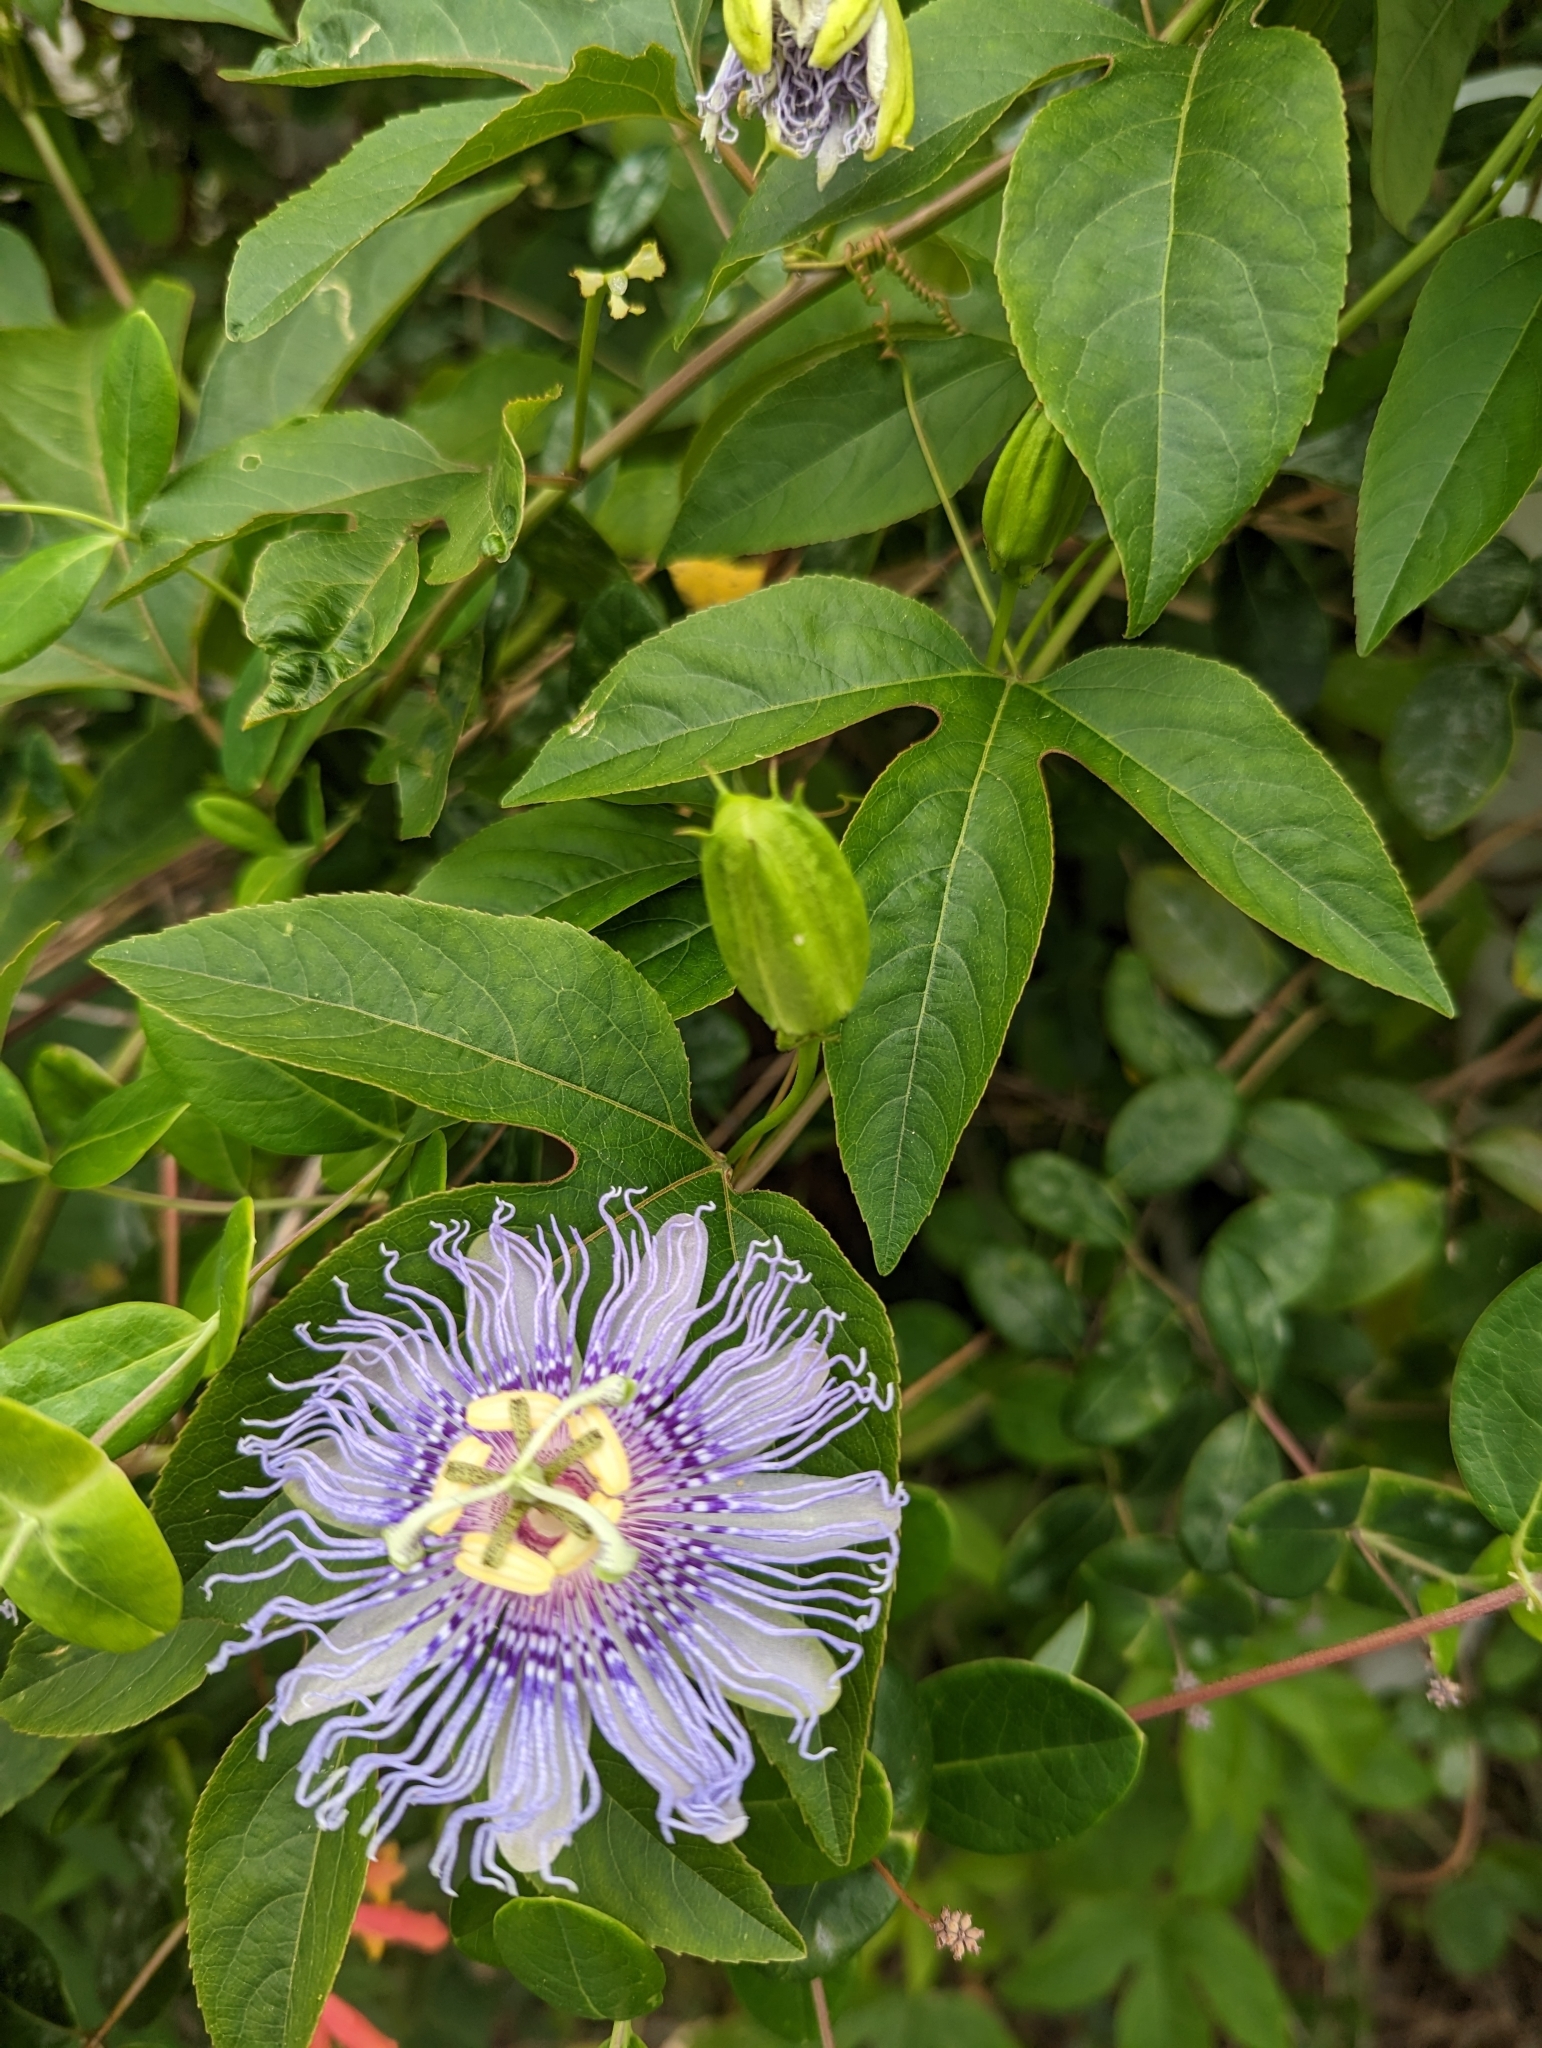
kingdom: Plantae
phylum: Tracheophyta
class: Magnoliopsida
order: Malpighiales
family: Passifloraceae
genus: Passiflora
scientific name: Passiflora incarnata
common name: Apricot-vine
